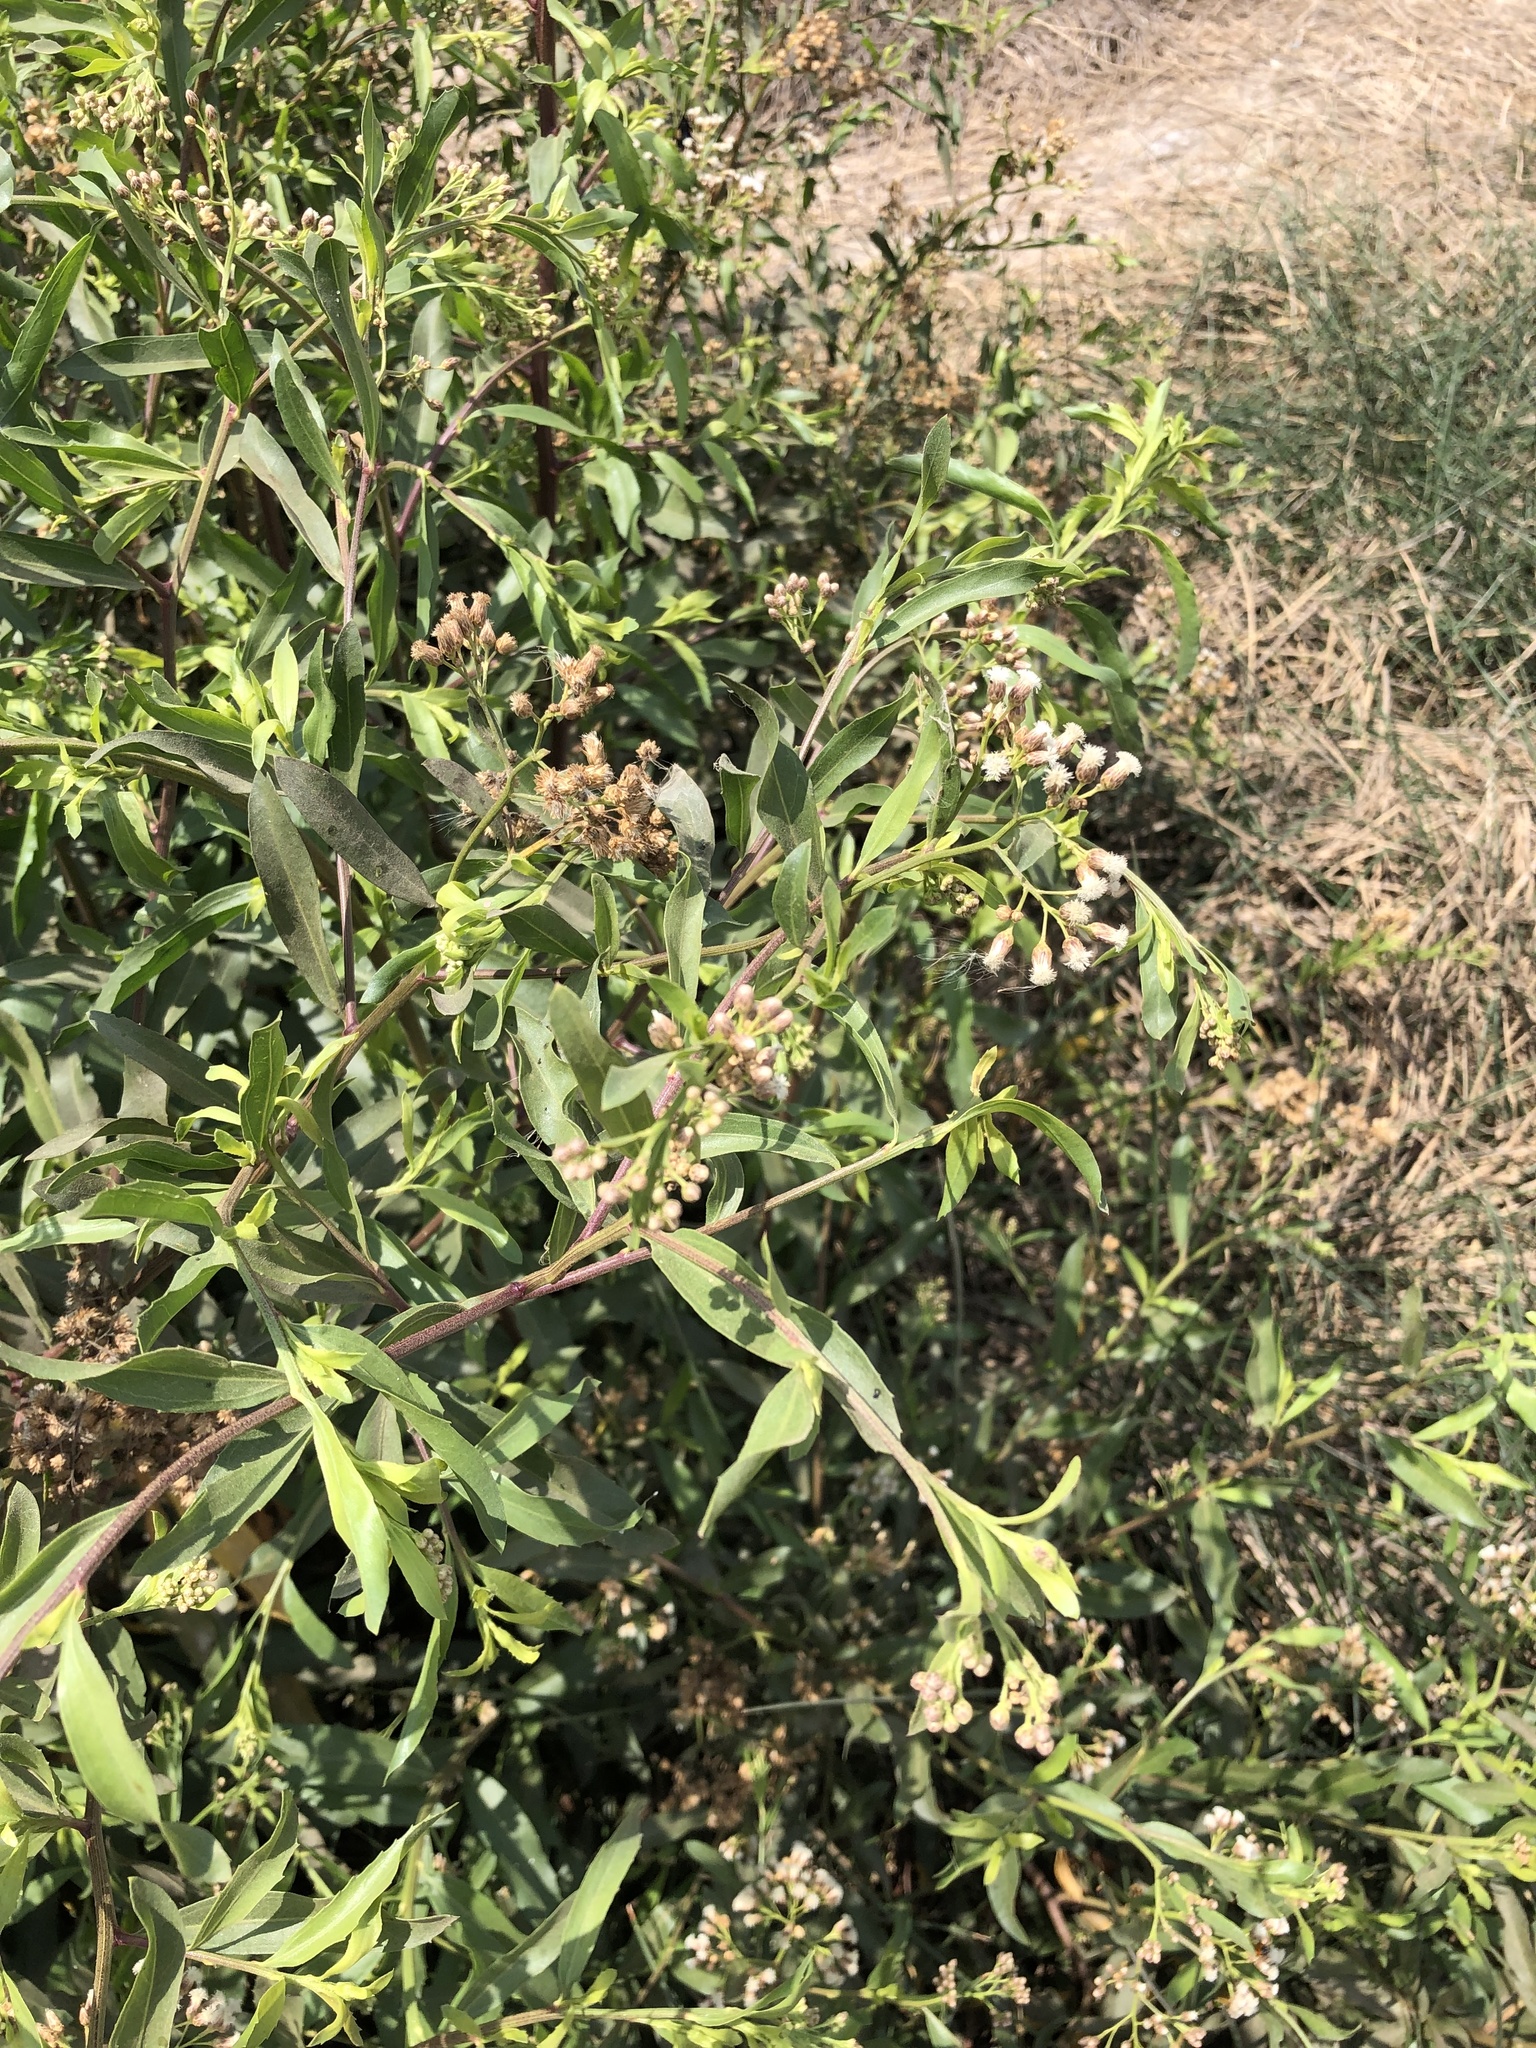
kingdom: Plantae
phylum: Tracheophyta
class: Magnoliopsida
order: Asterales
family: Asteraceae
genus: Baccharis
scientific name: Baccharis latifolia
